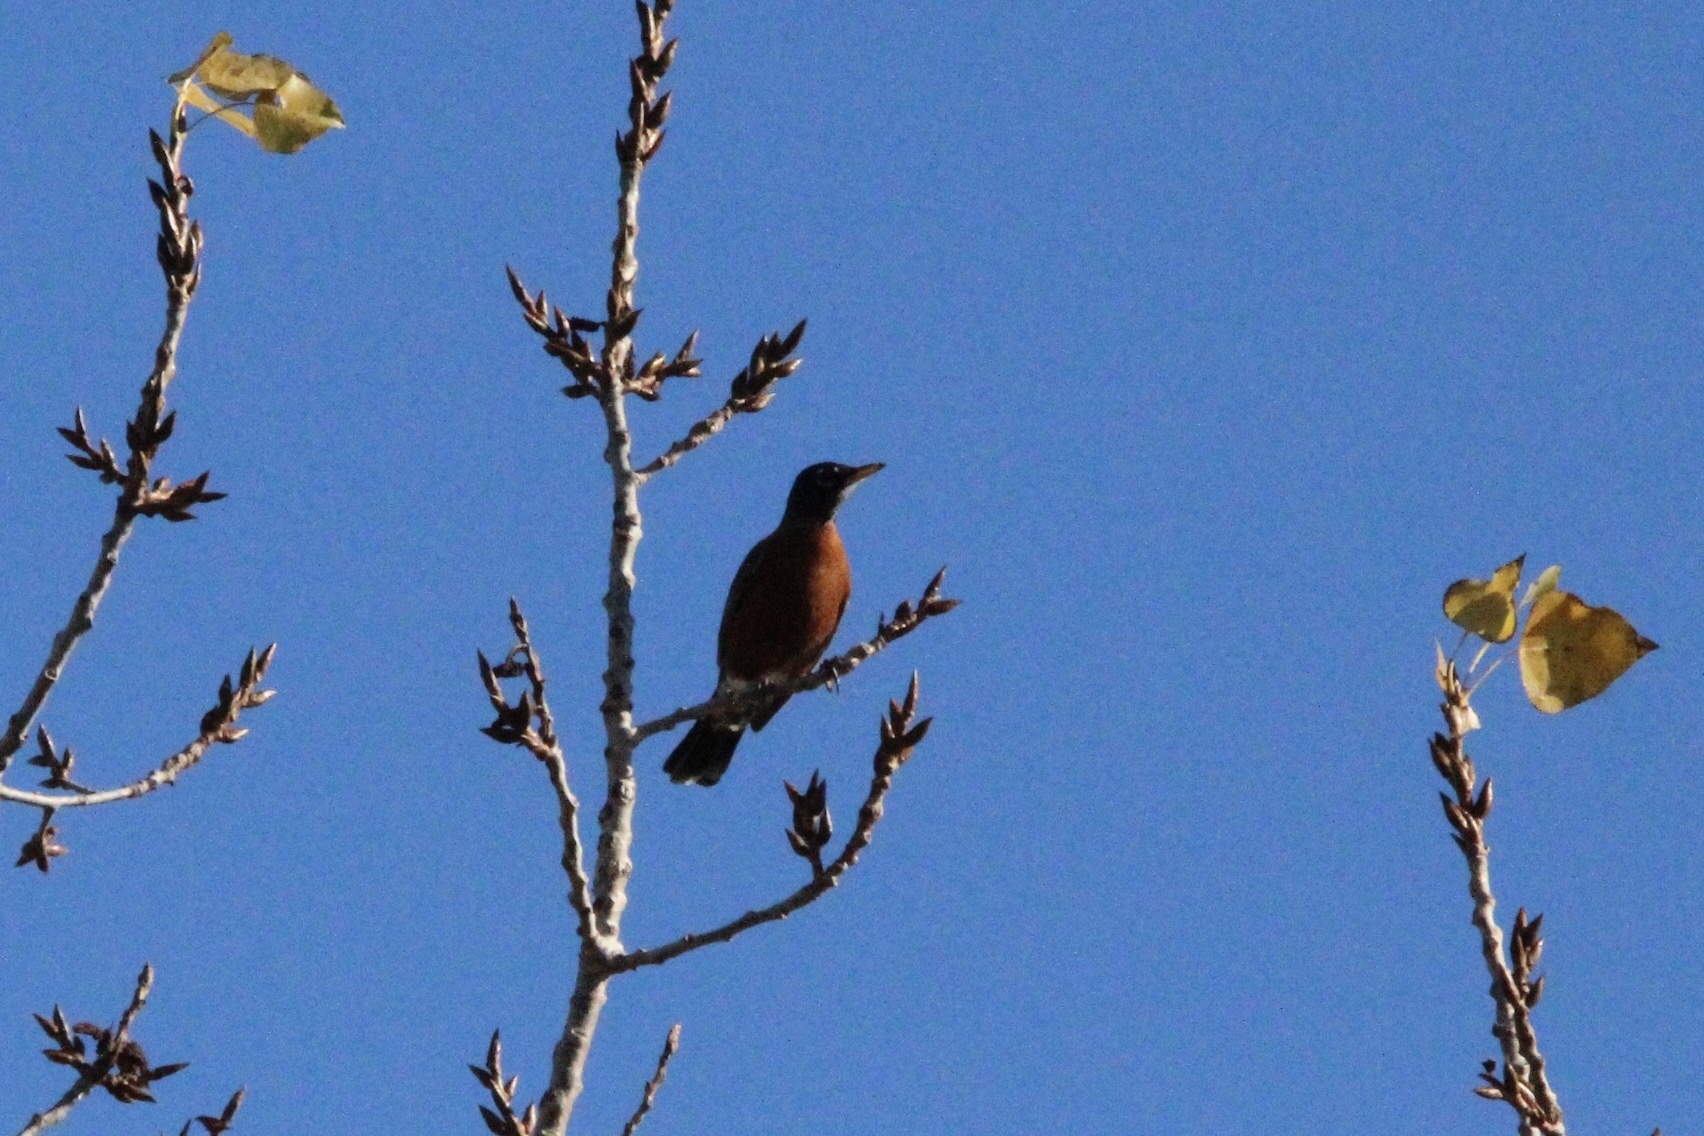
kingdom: Animalia
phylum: Chordata
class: Aves
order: Passeriformes
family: Turdidae
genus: Turdus
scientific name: Turdus migratorius
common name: American robin
